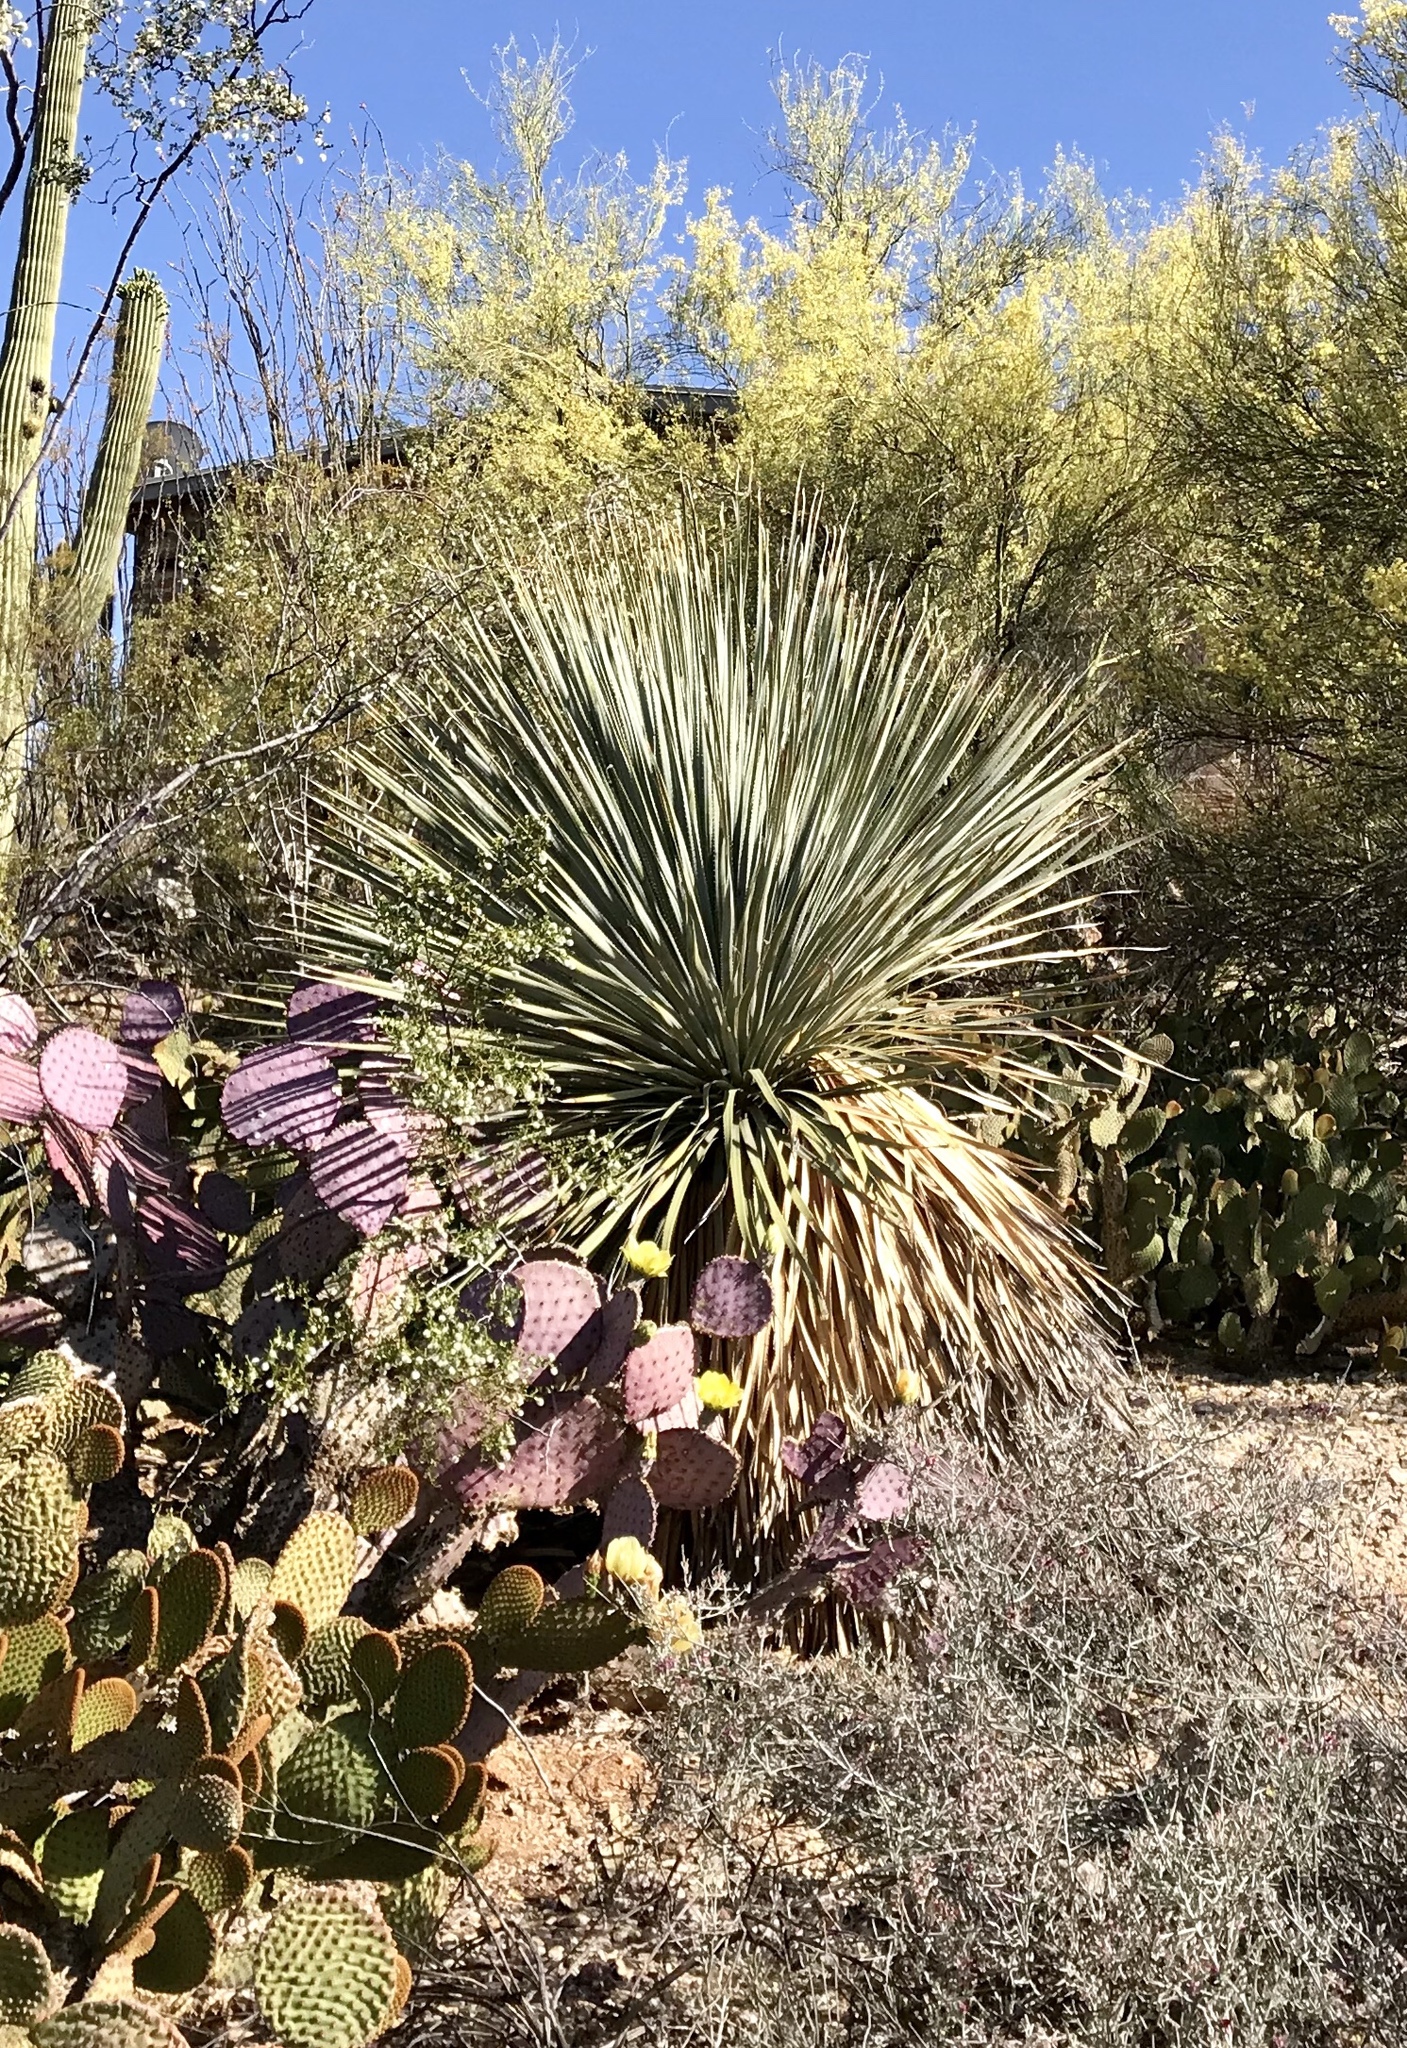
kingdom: Plantae
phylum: Tracheophyta
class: Liliopsida
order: Asparagales
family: Asparagaceae
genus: Dasylirion
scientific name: Dasylirion wheeleri
